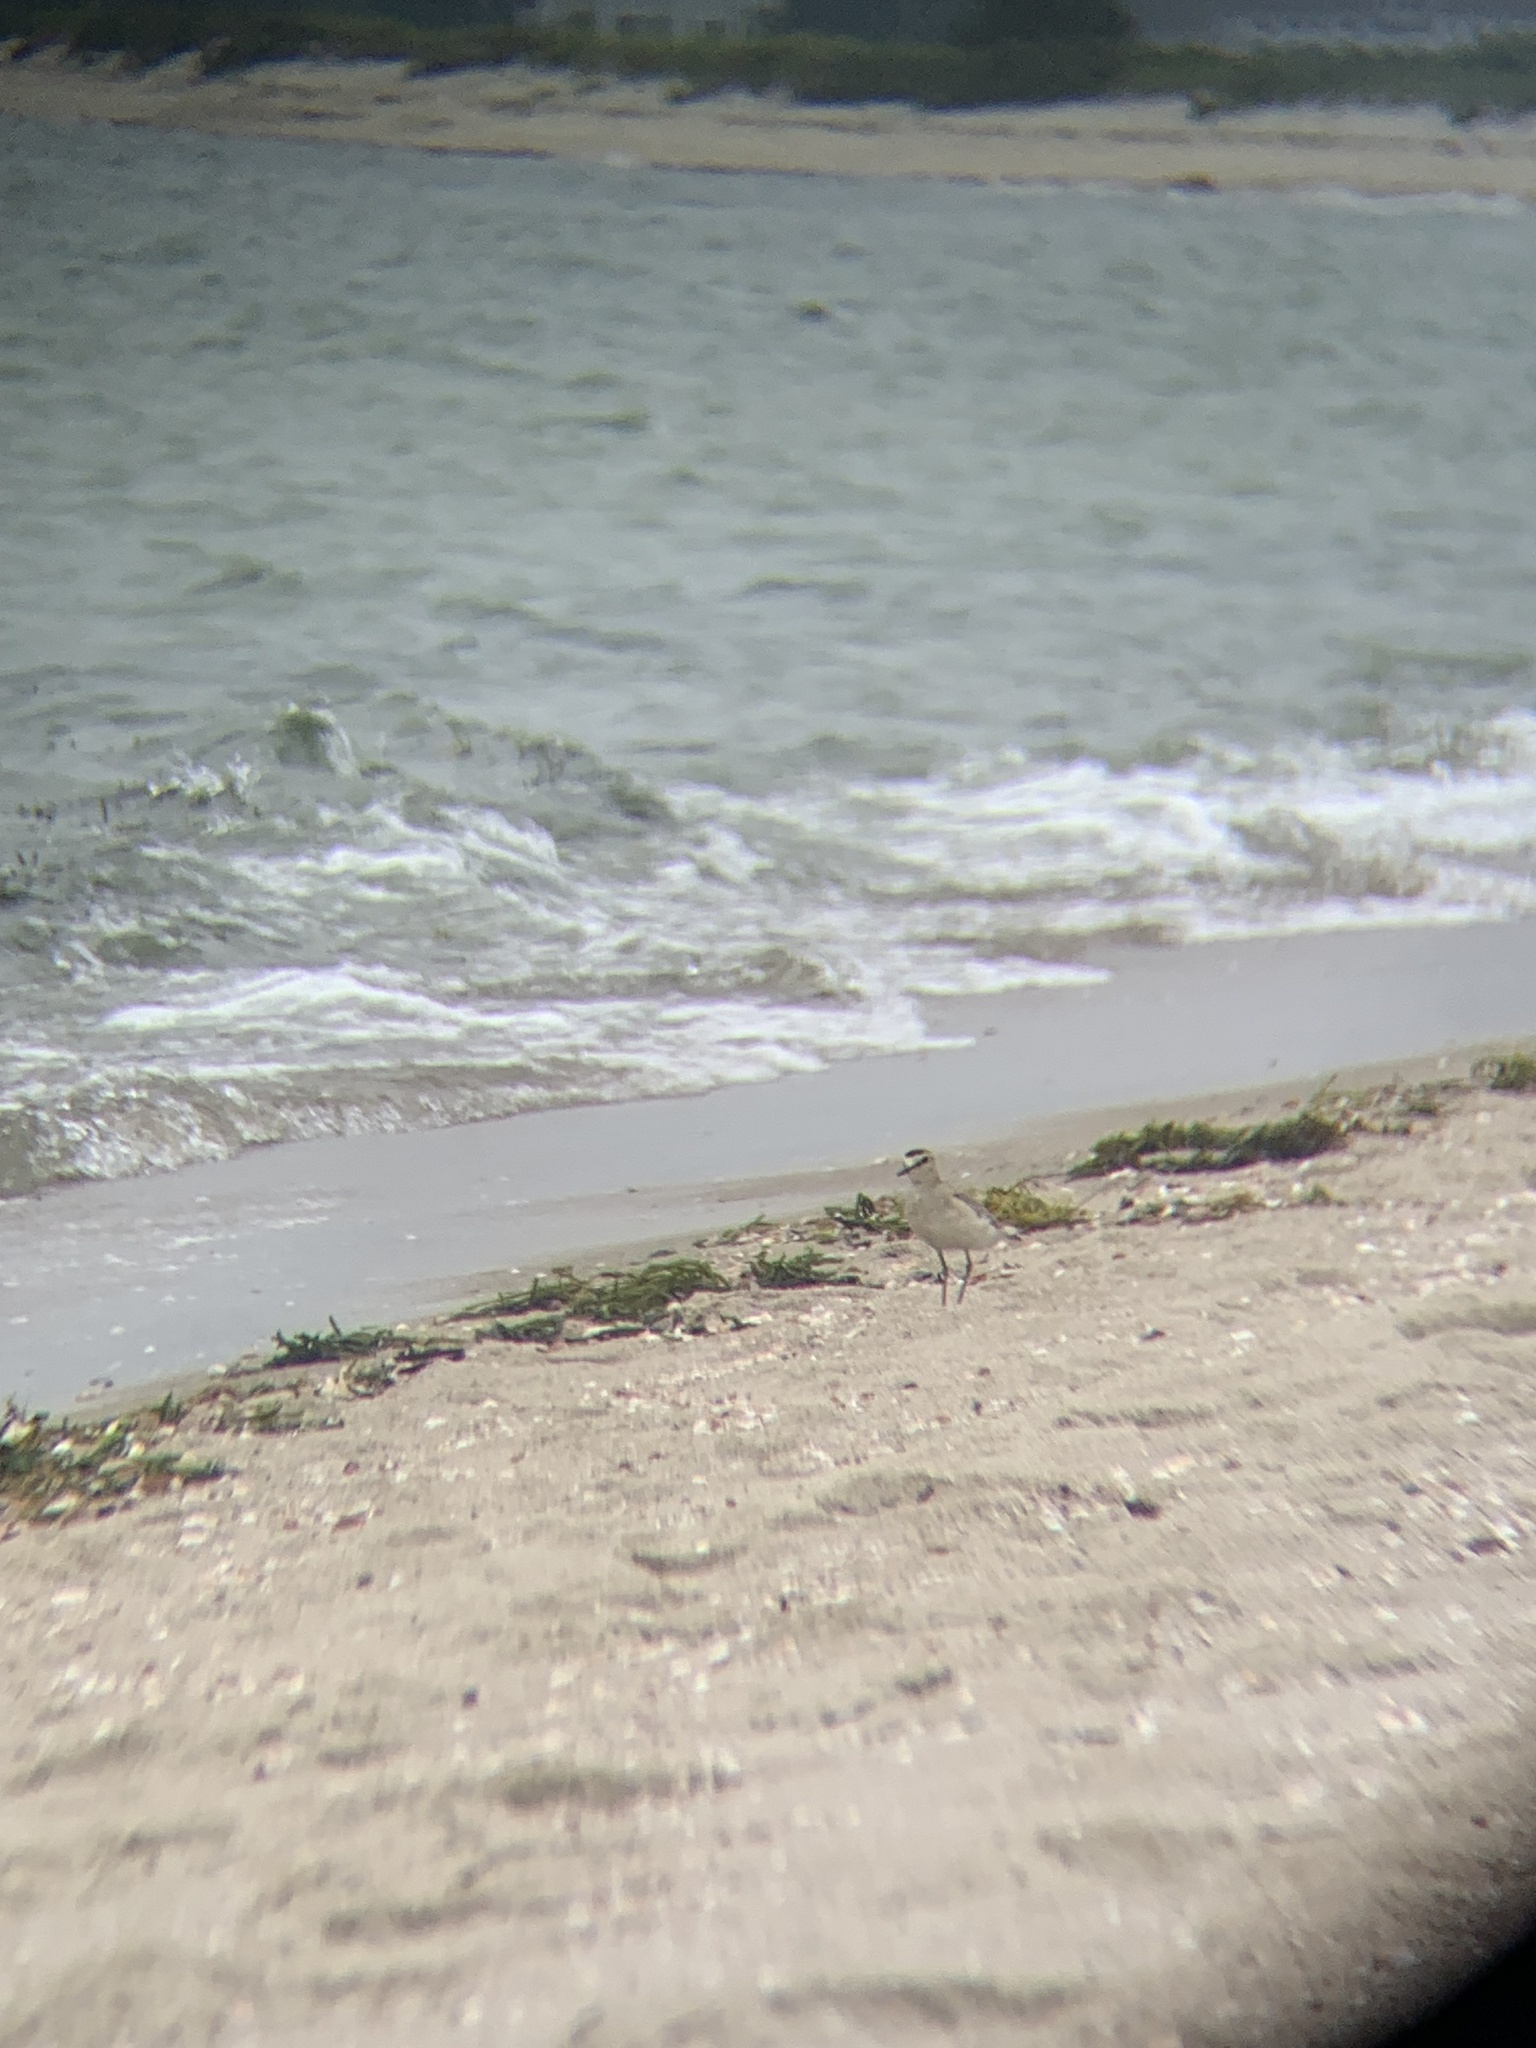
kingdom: Animalia
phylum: Chordata
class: Aves
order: Charadriiformes
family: Charadriidae
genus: Anarhynchus
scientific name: Anarhynchus
